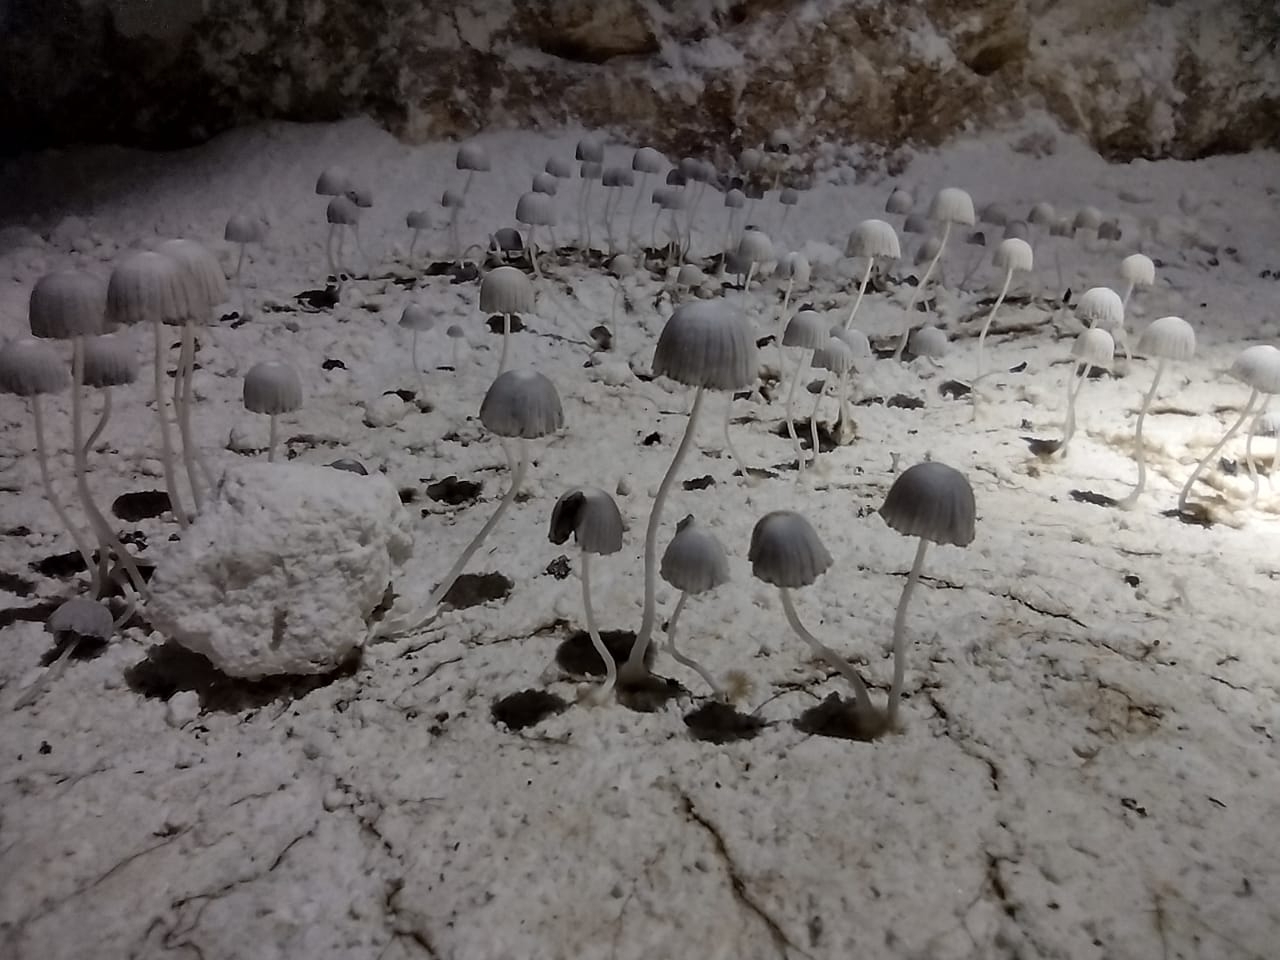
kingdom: Fungi
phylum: Basidiomycota
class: Agaricomycetes
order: Agaricales
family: Psathyrellaceae
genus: Coprinellus
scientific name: Coprinellus disseminatus
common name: Fairies' bonnets
